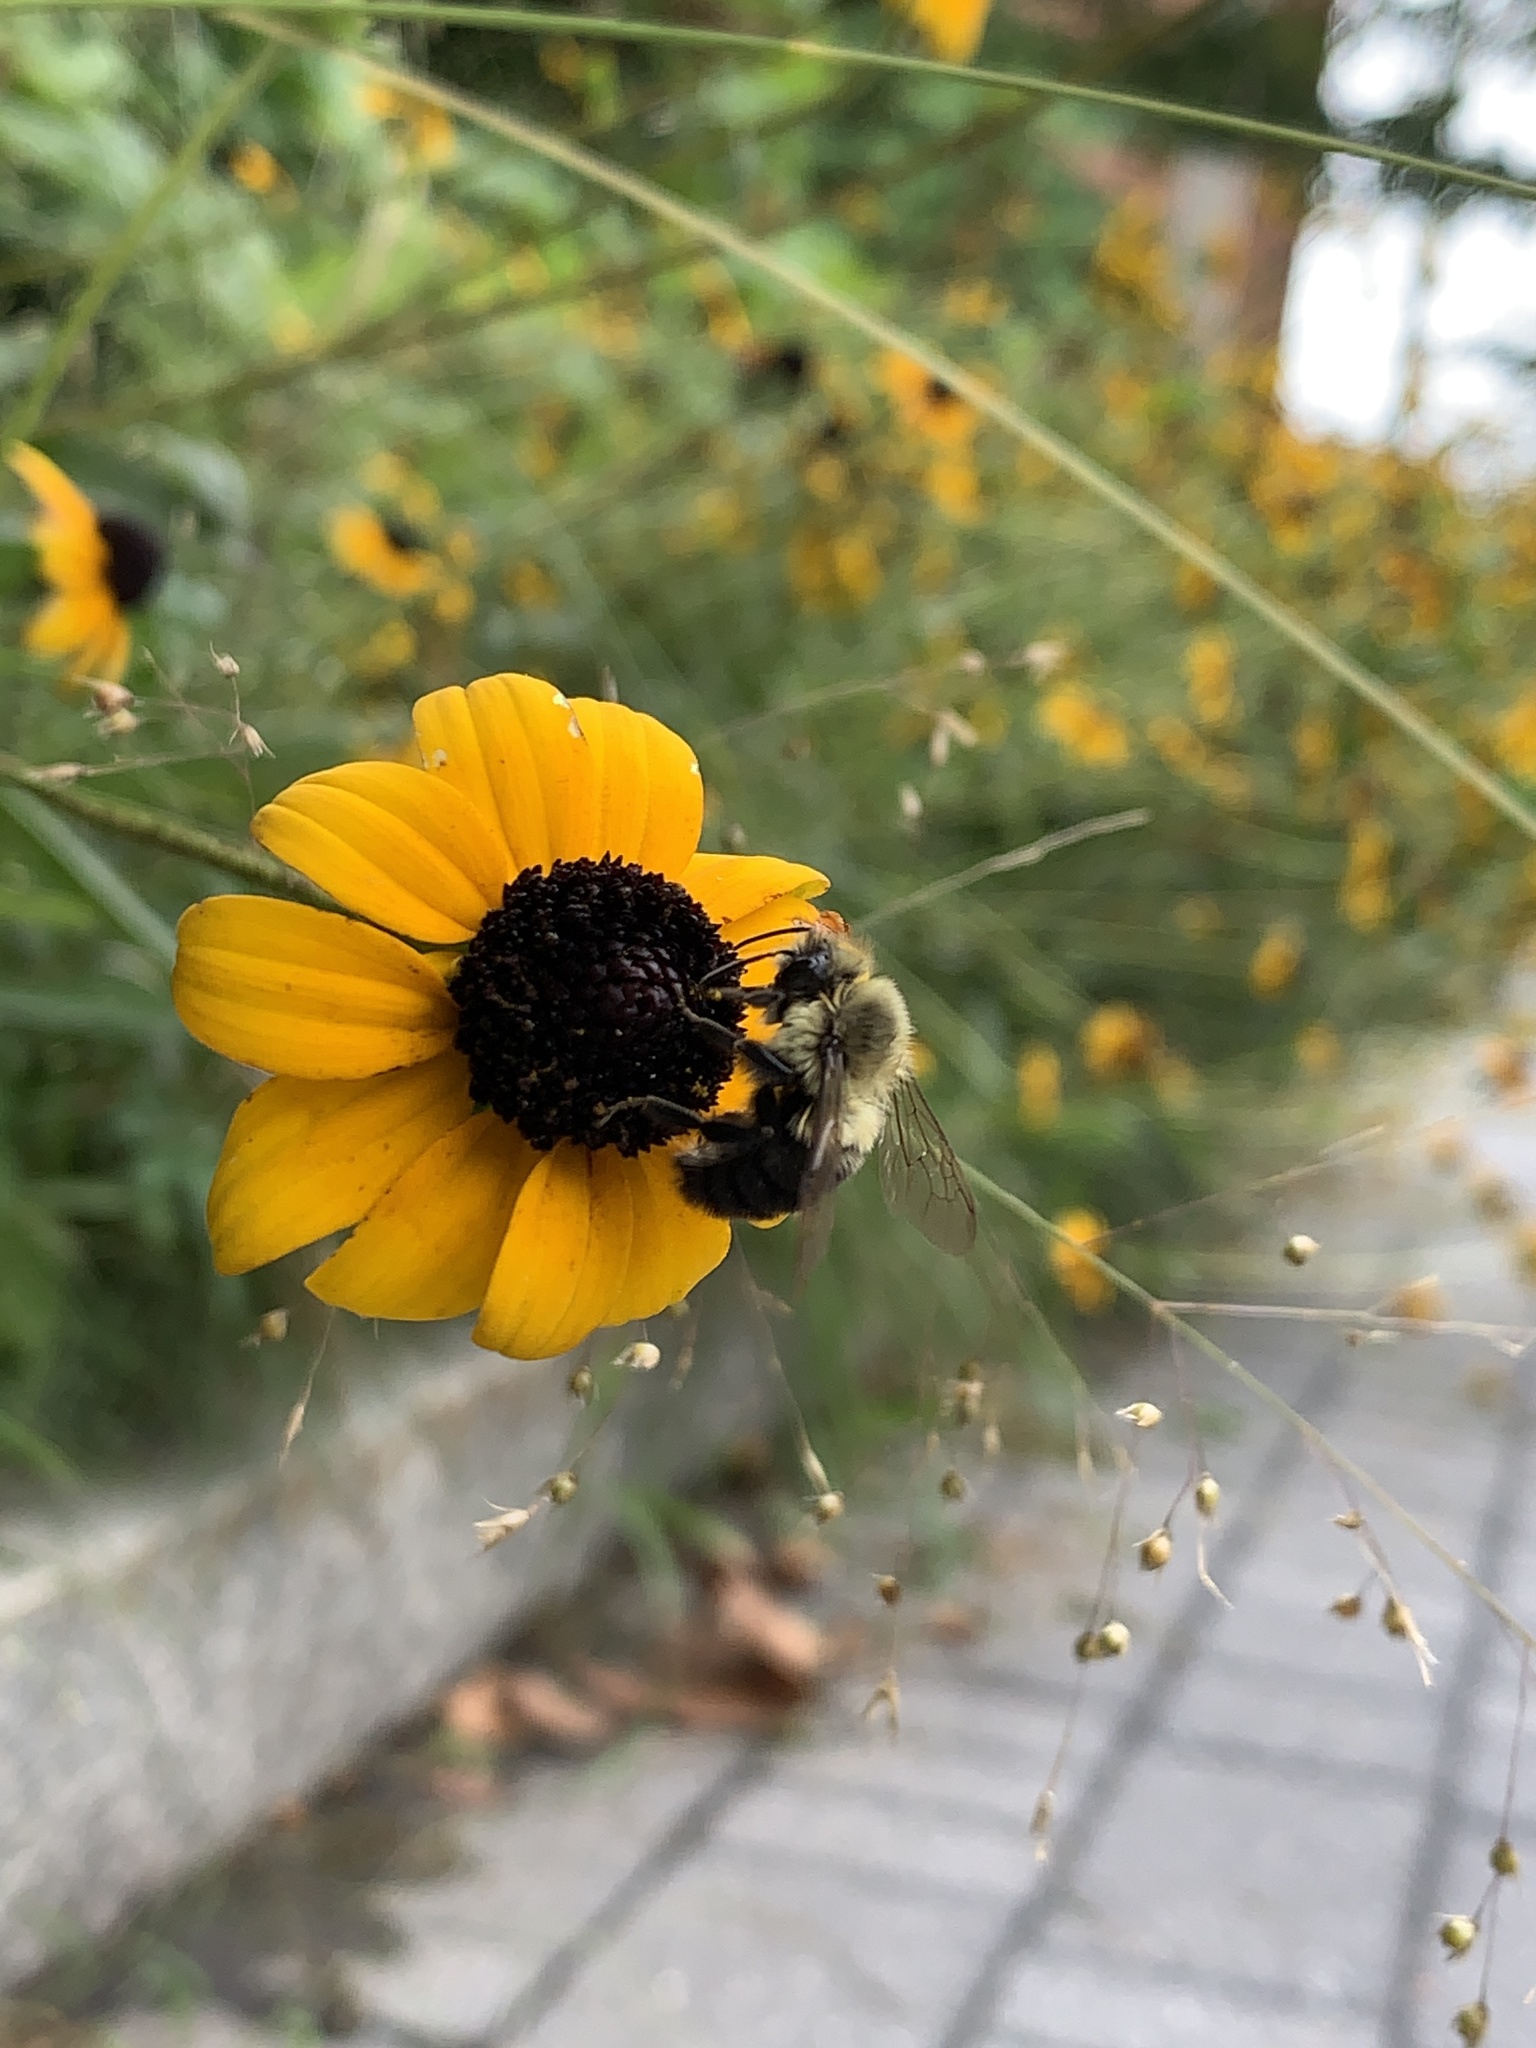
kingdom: Animalia
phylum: Arthropoda
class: Insecta
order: Hymenoptera
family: Apidae
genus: Bombus
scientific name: Bombus impatiens
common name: Common eastern bumble bee
